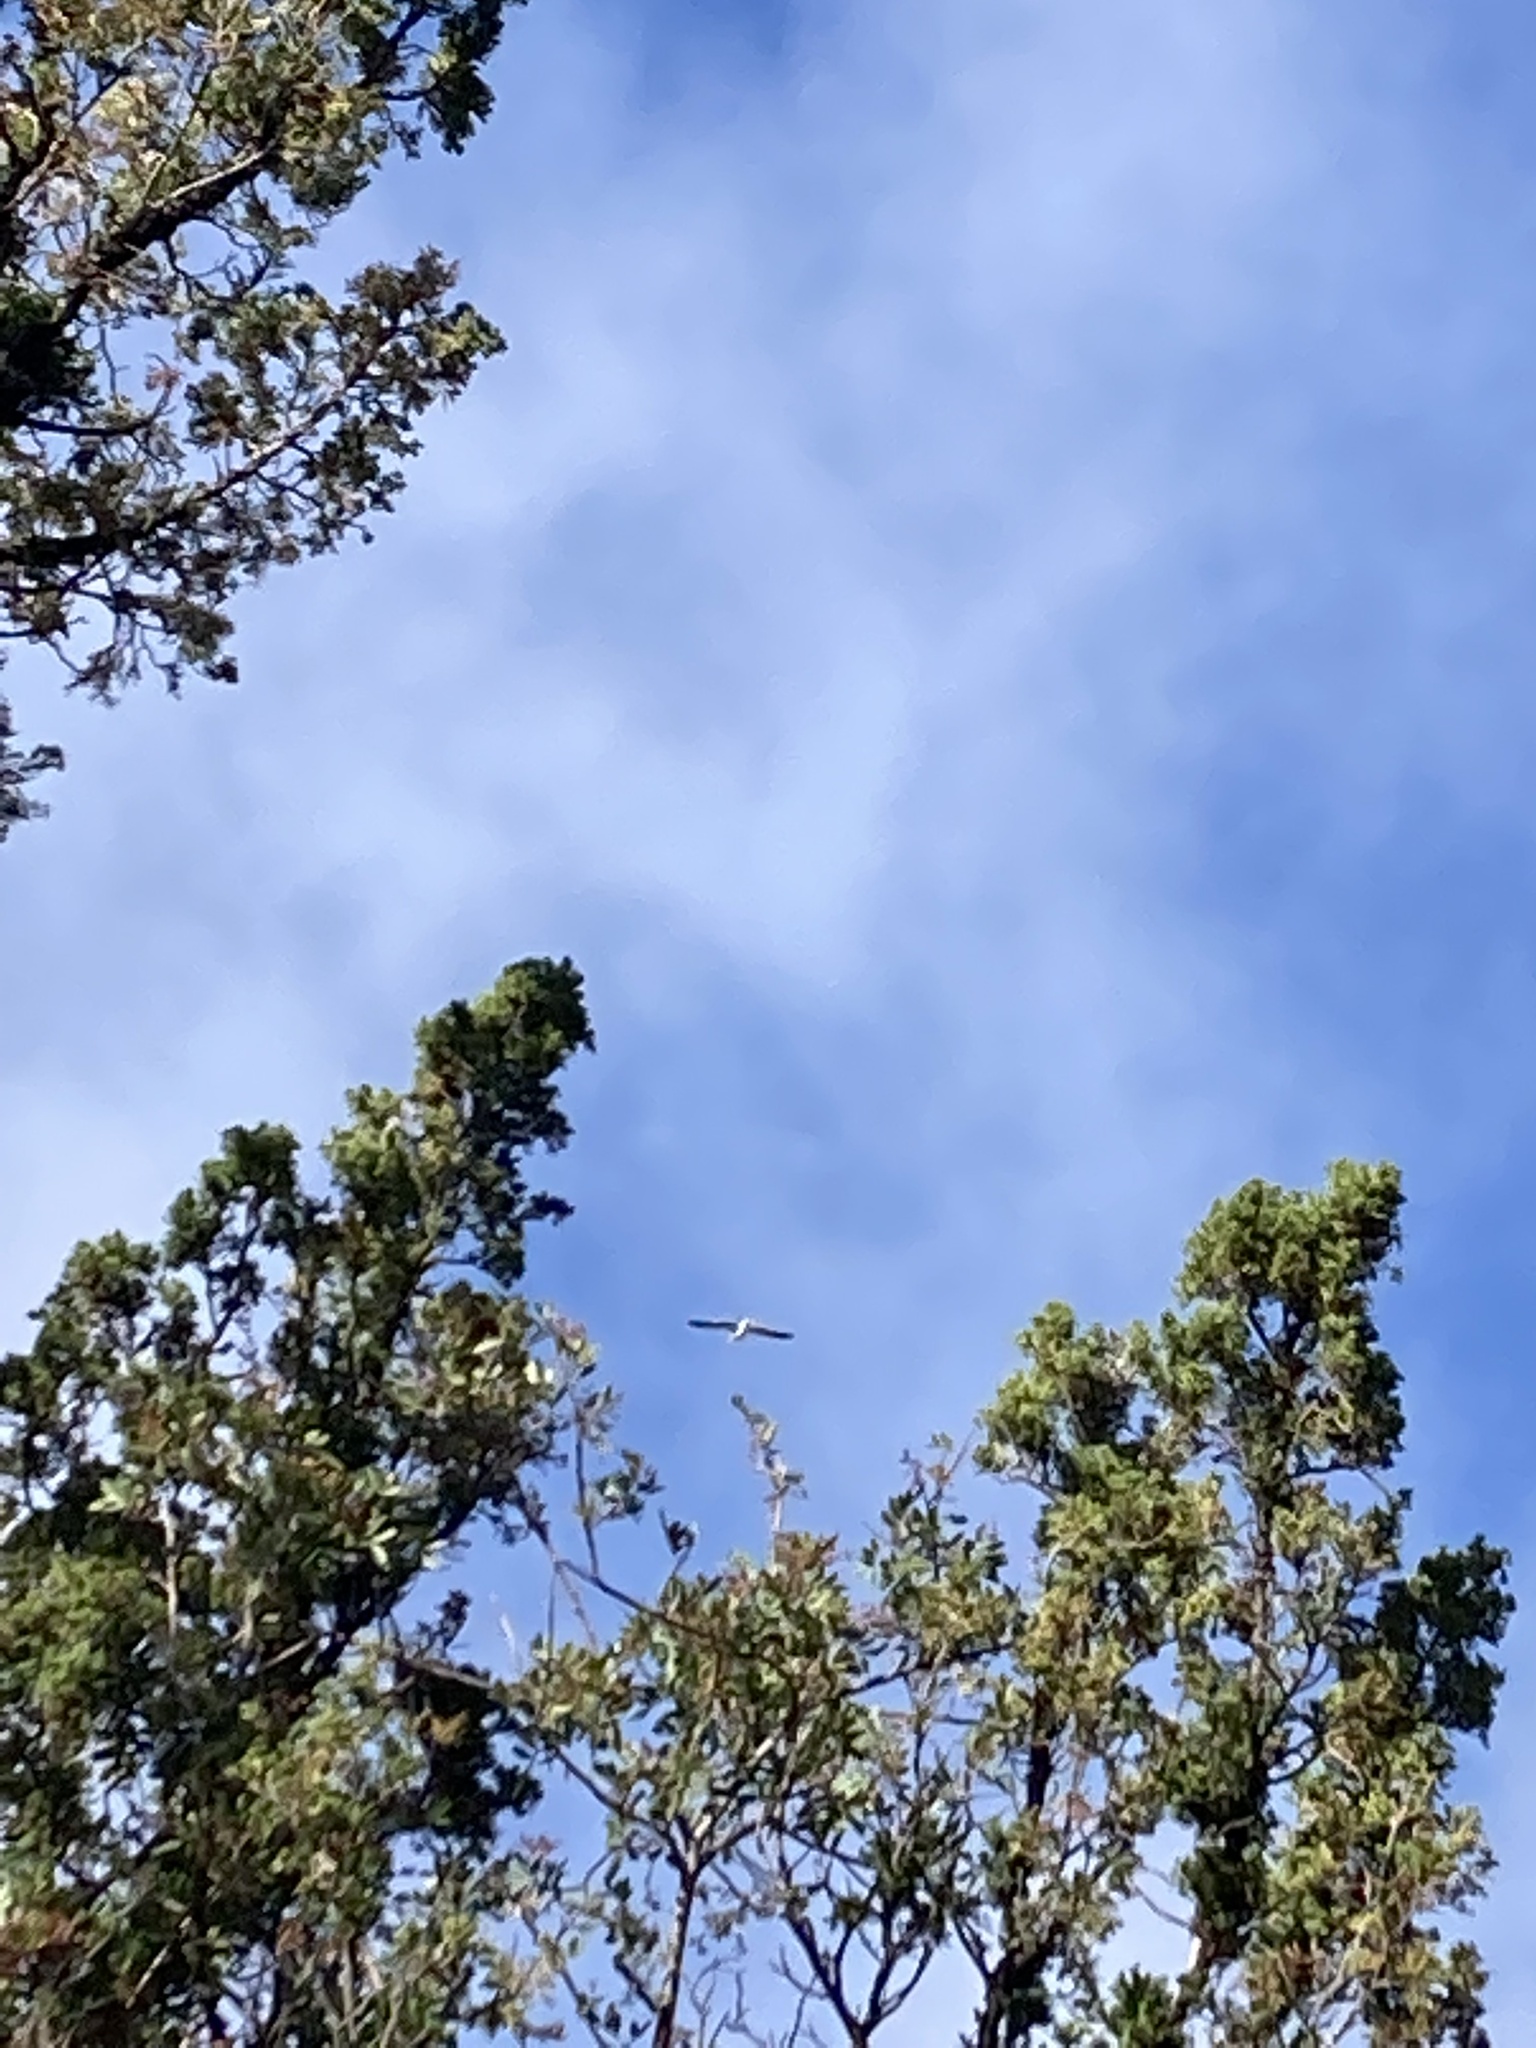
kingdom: Animalia
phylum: Chordata
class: Aves
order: Charadriiformes
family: Laridae
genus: Larus
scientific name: Larus
